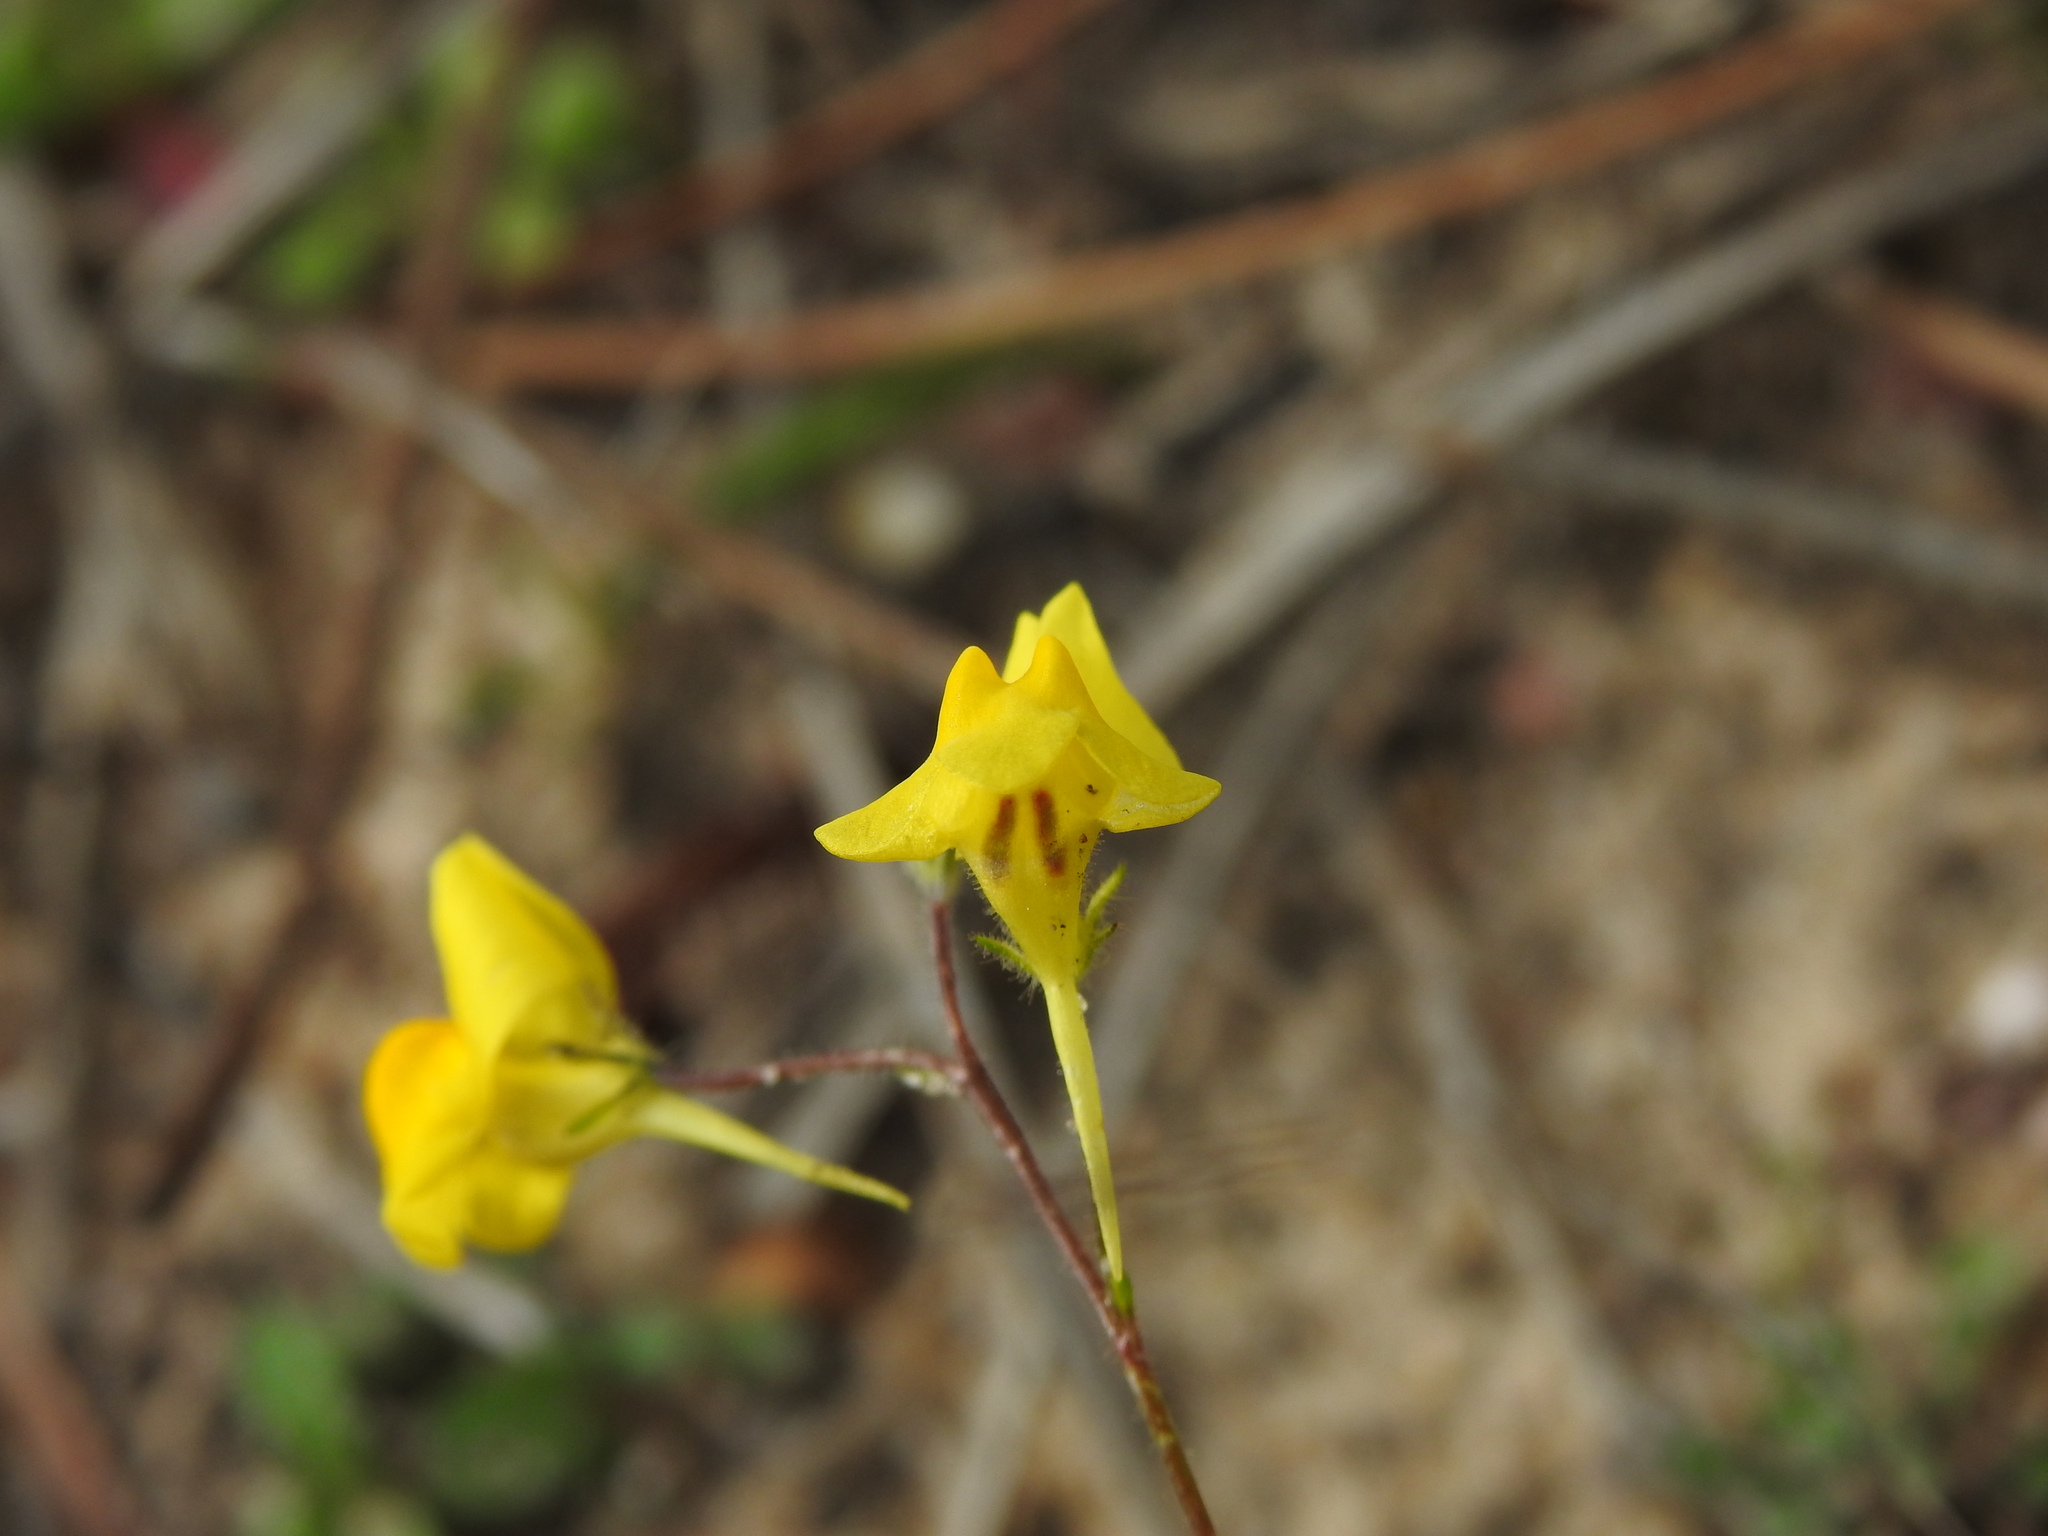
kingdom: Plantae
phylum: Tracheophyta
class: Magnoliopsida
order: Lamiales
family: Plantaginaceae
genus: Linaria
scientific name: Linaria spartea
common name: Ballast toadflax
